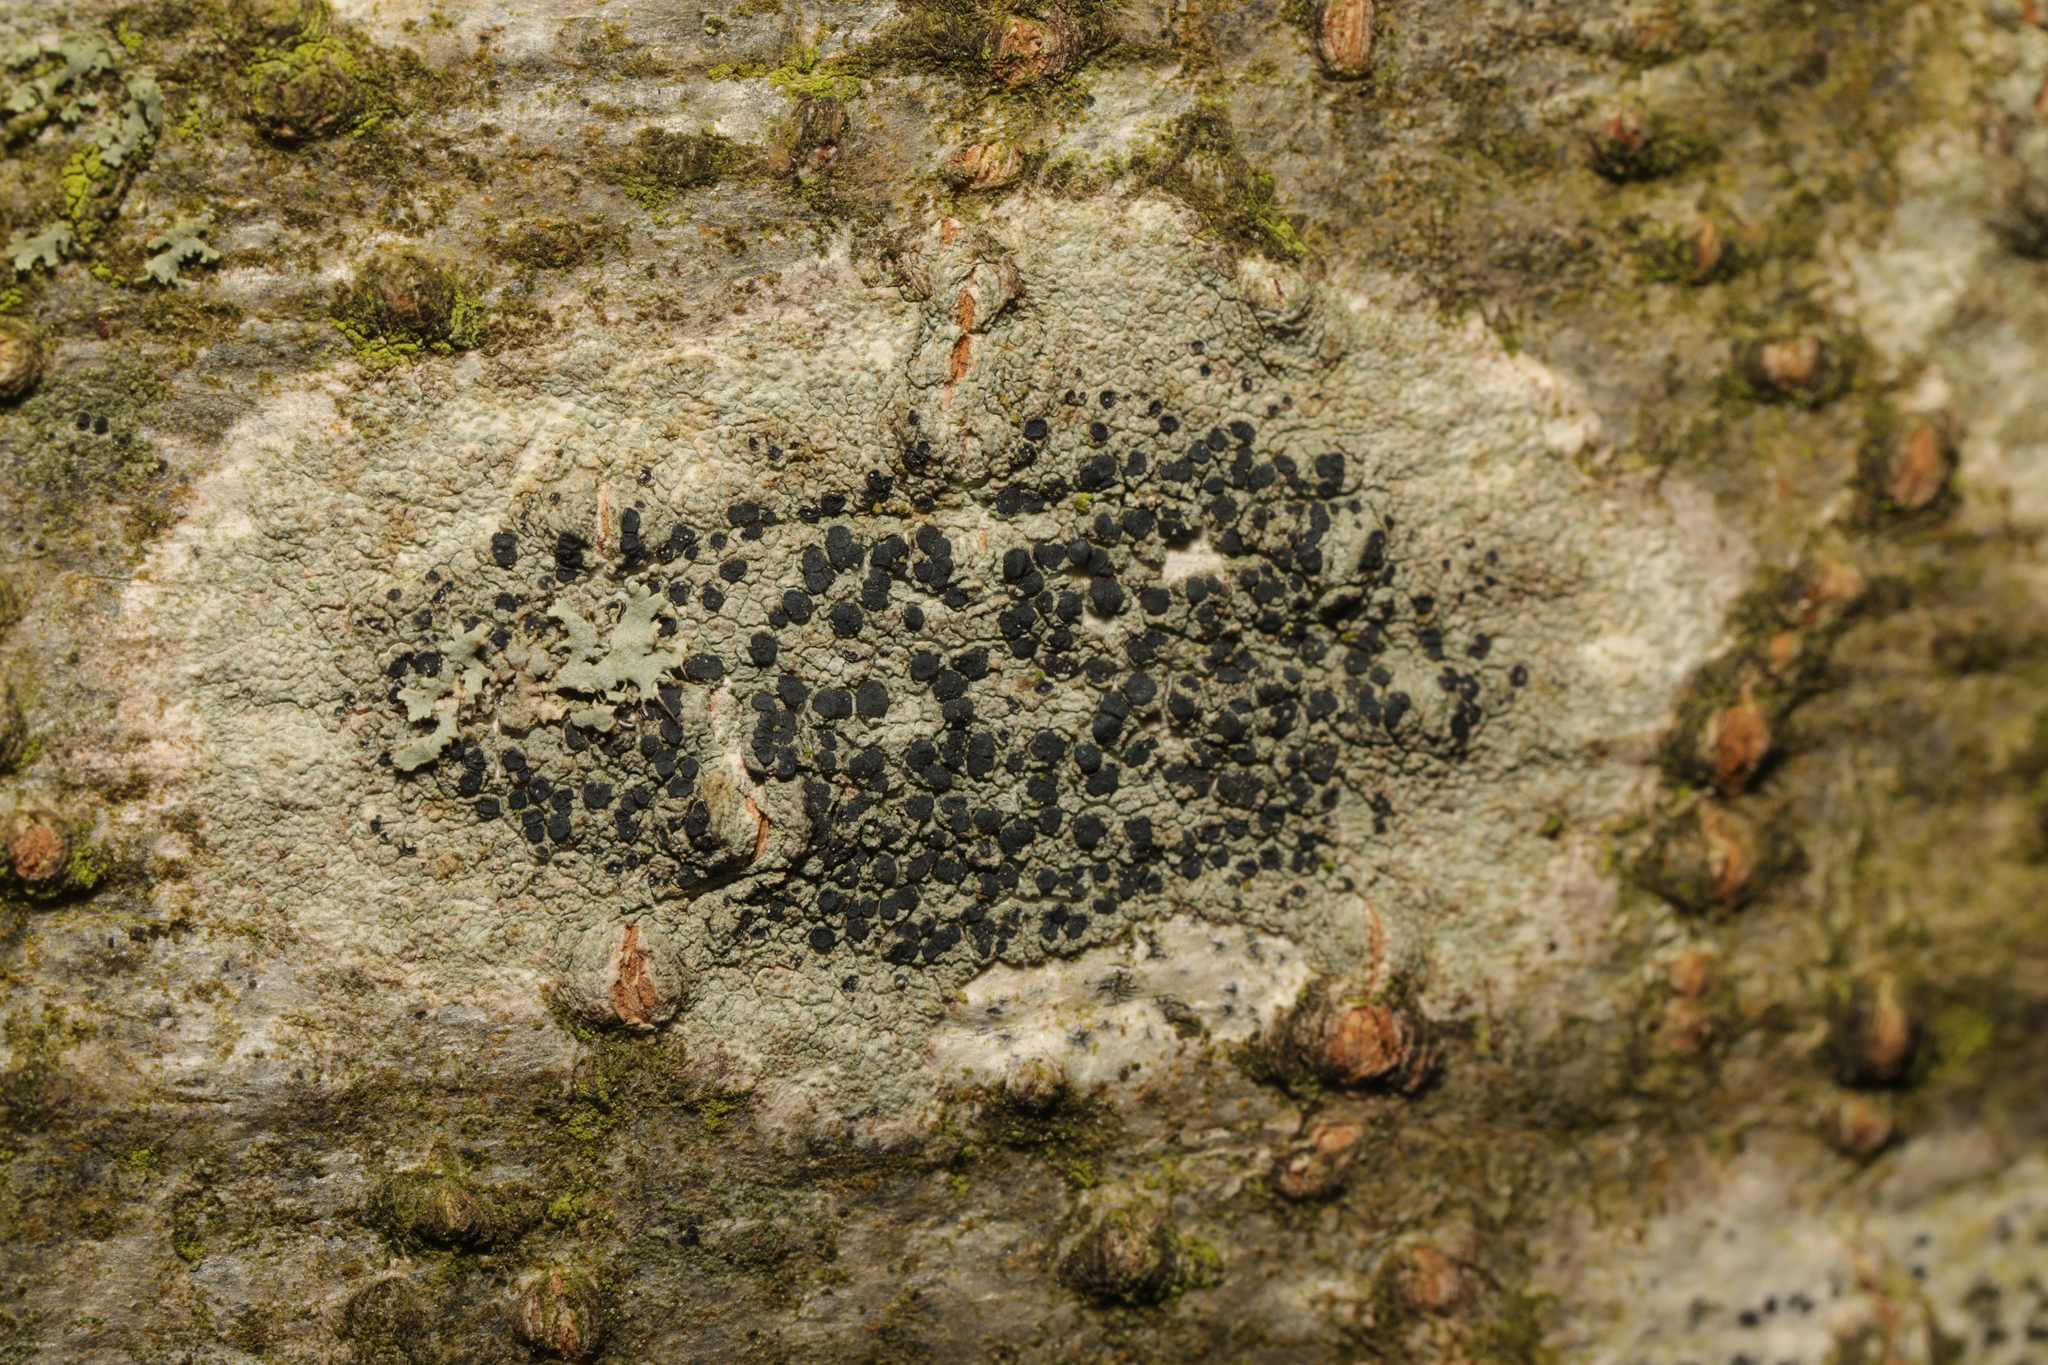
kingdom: Fungi
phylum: Ascomycota
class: Lecanoromycetes
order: Lecanorales
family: Lecanoraceae
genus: Lecidella
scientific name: Lecidella elaeochroma
